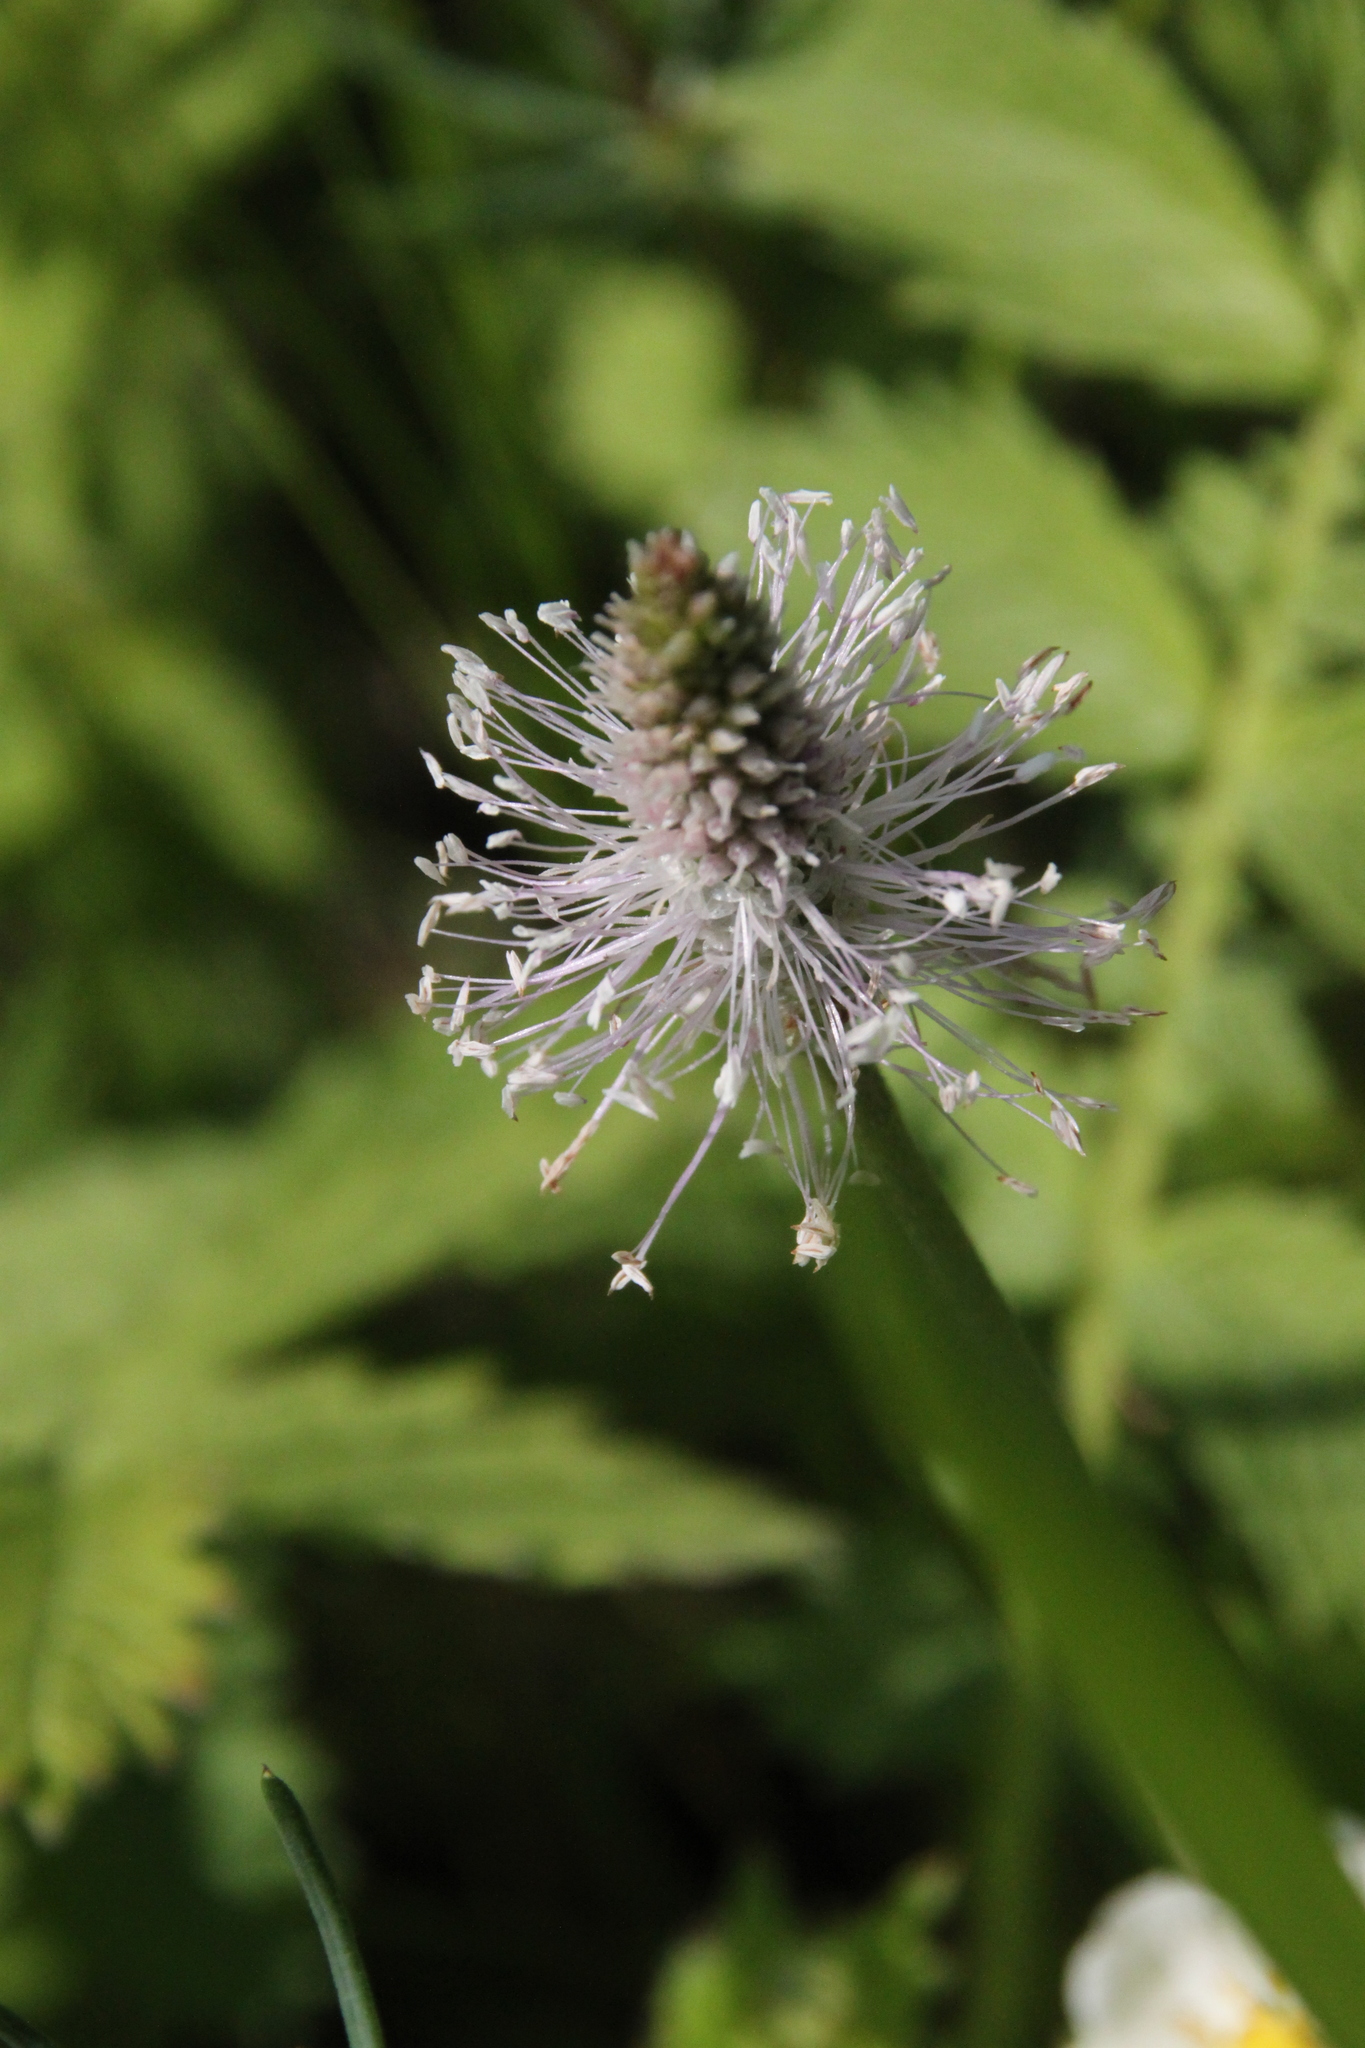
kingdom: Plantae
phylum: Tracheophyta
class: Magnoliopsida
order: Lamiales
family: Plantaginaceae
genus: Plantago
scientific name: Plantago media
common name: Hoary plantain
